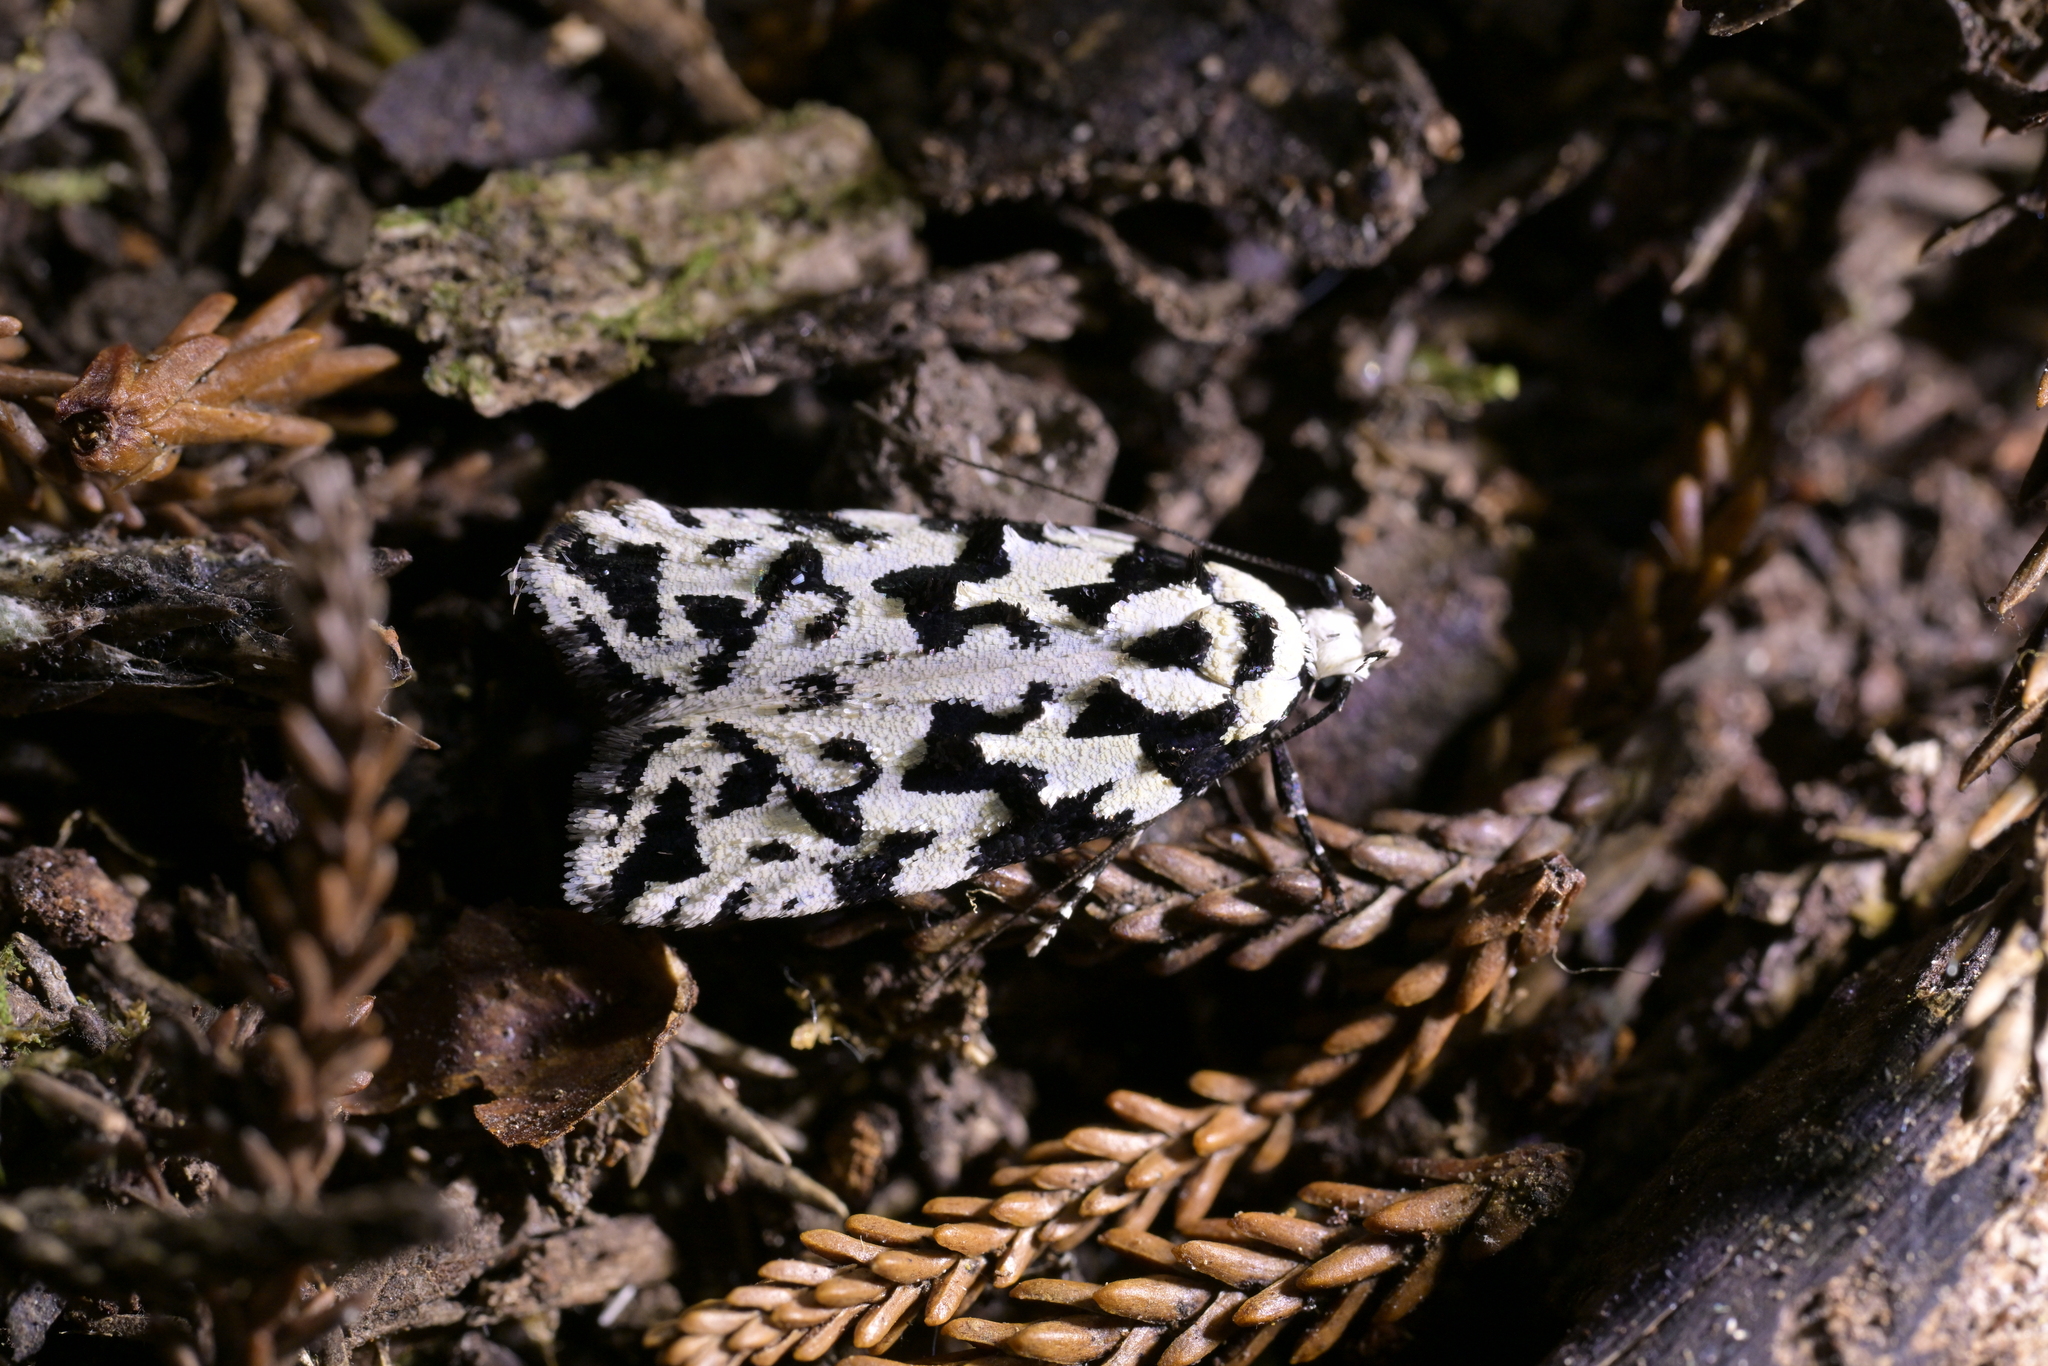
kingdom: Animalia
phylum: Arthropoda
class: Insecta
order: Lepidoptera
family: Oecophoridae
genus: Izatha
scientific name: Izatha
